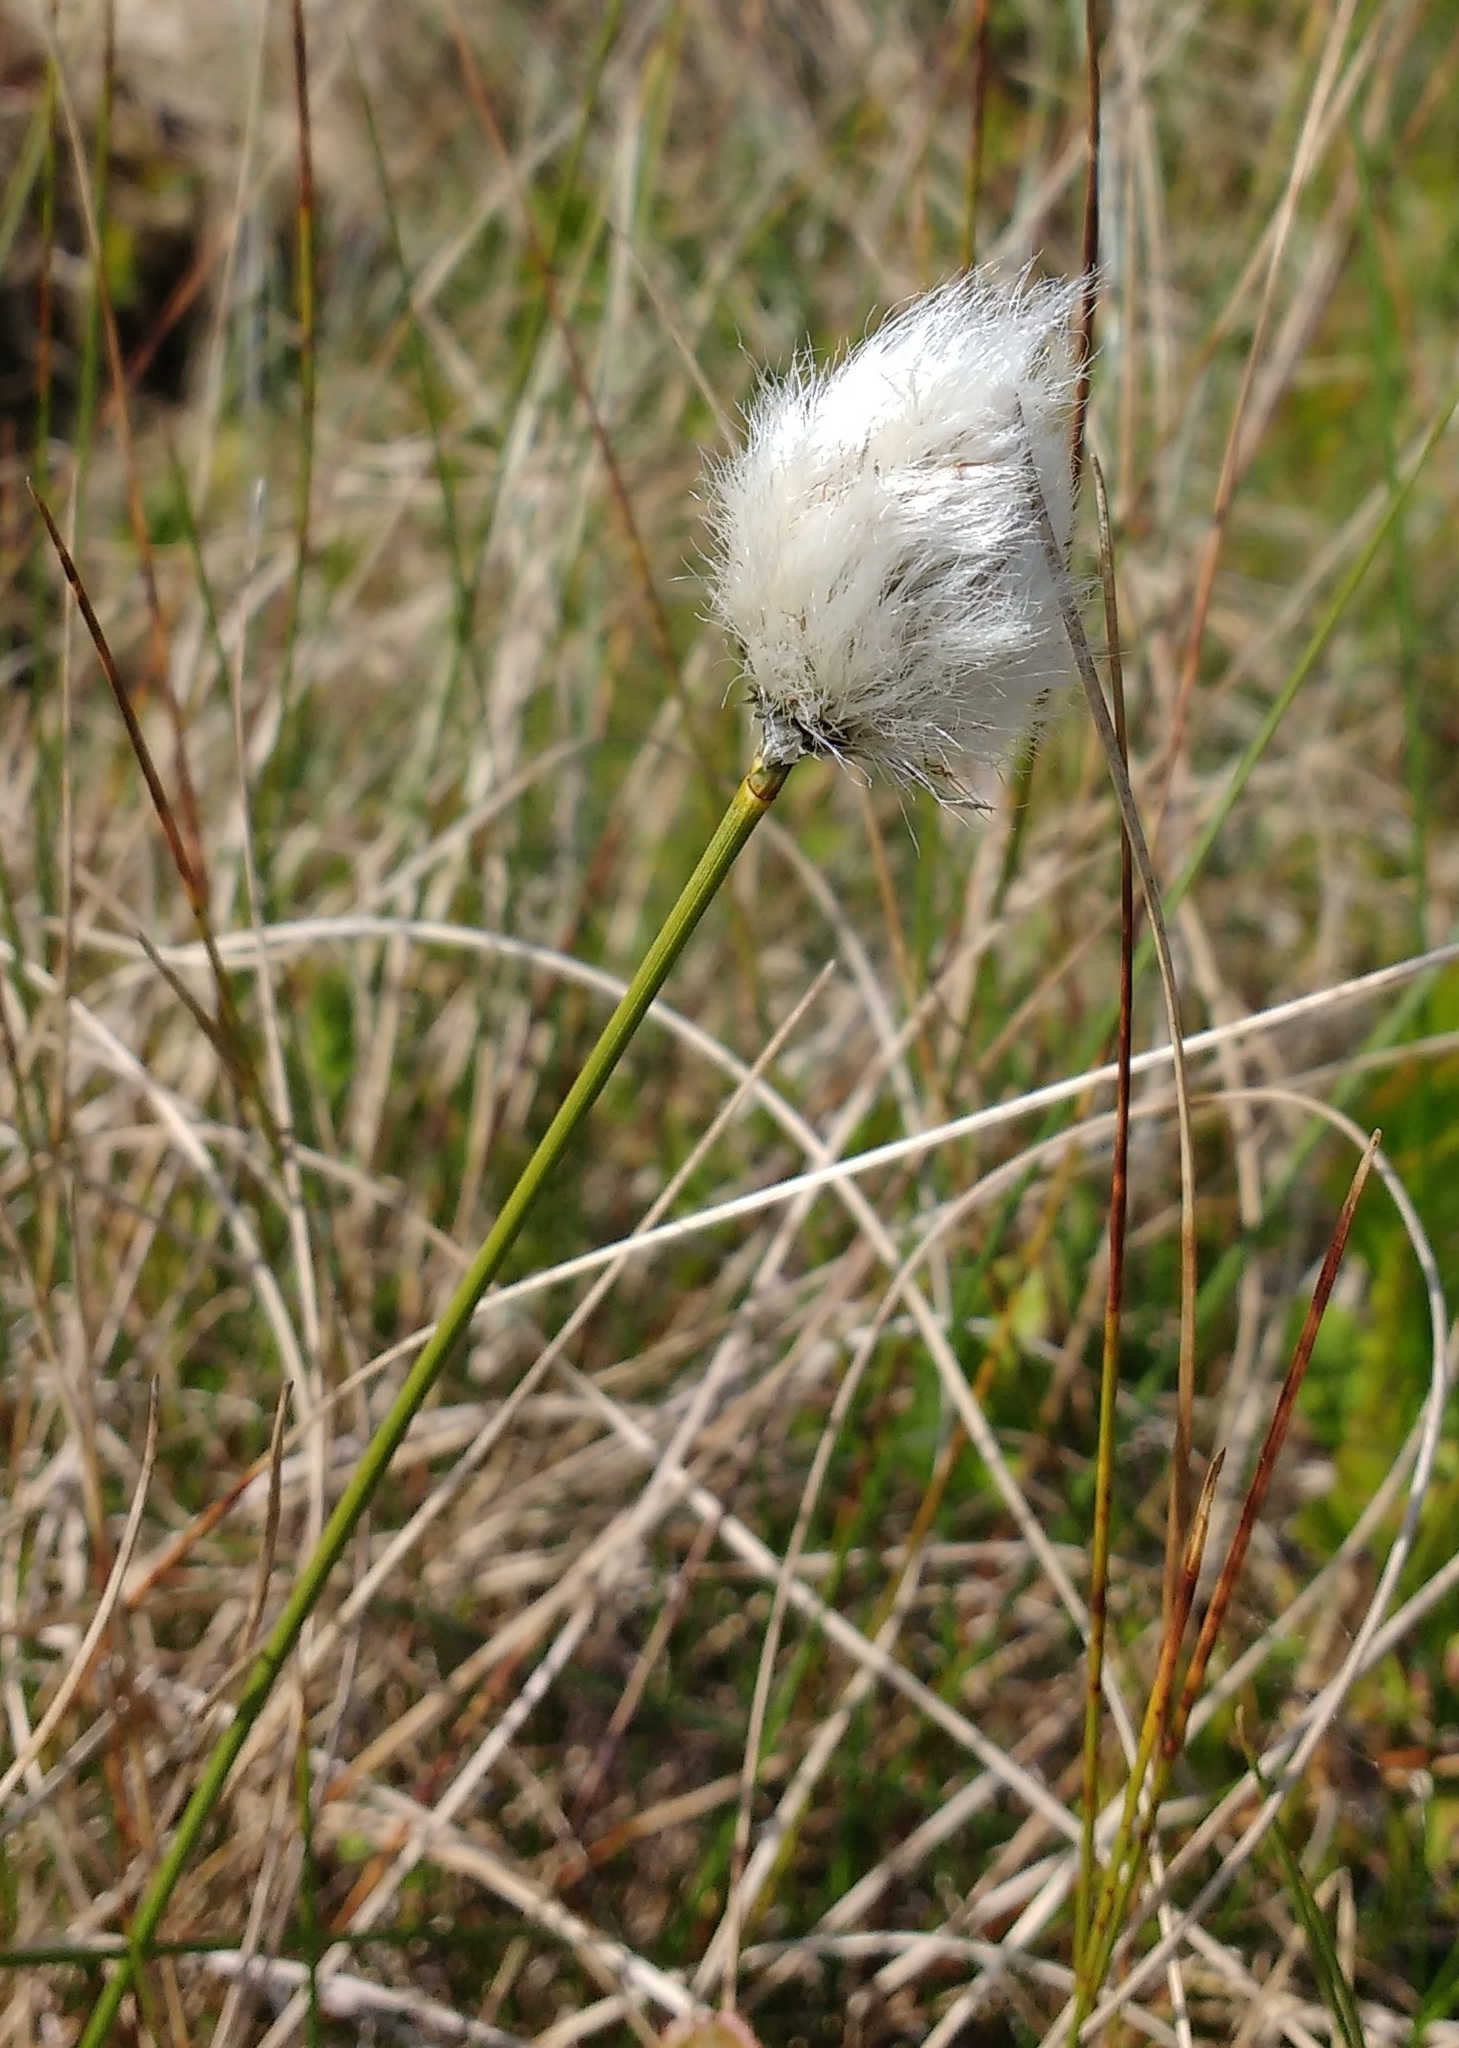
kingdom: Plantae
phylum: Tracheophyta
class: Liliopsida
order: Poales
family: Cyperaceae
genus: Eriophorum
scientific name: Eriophorum vaginatum
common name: Hare's-tail cottongrass
